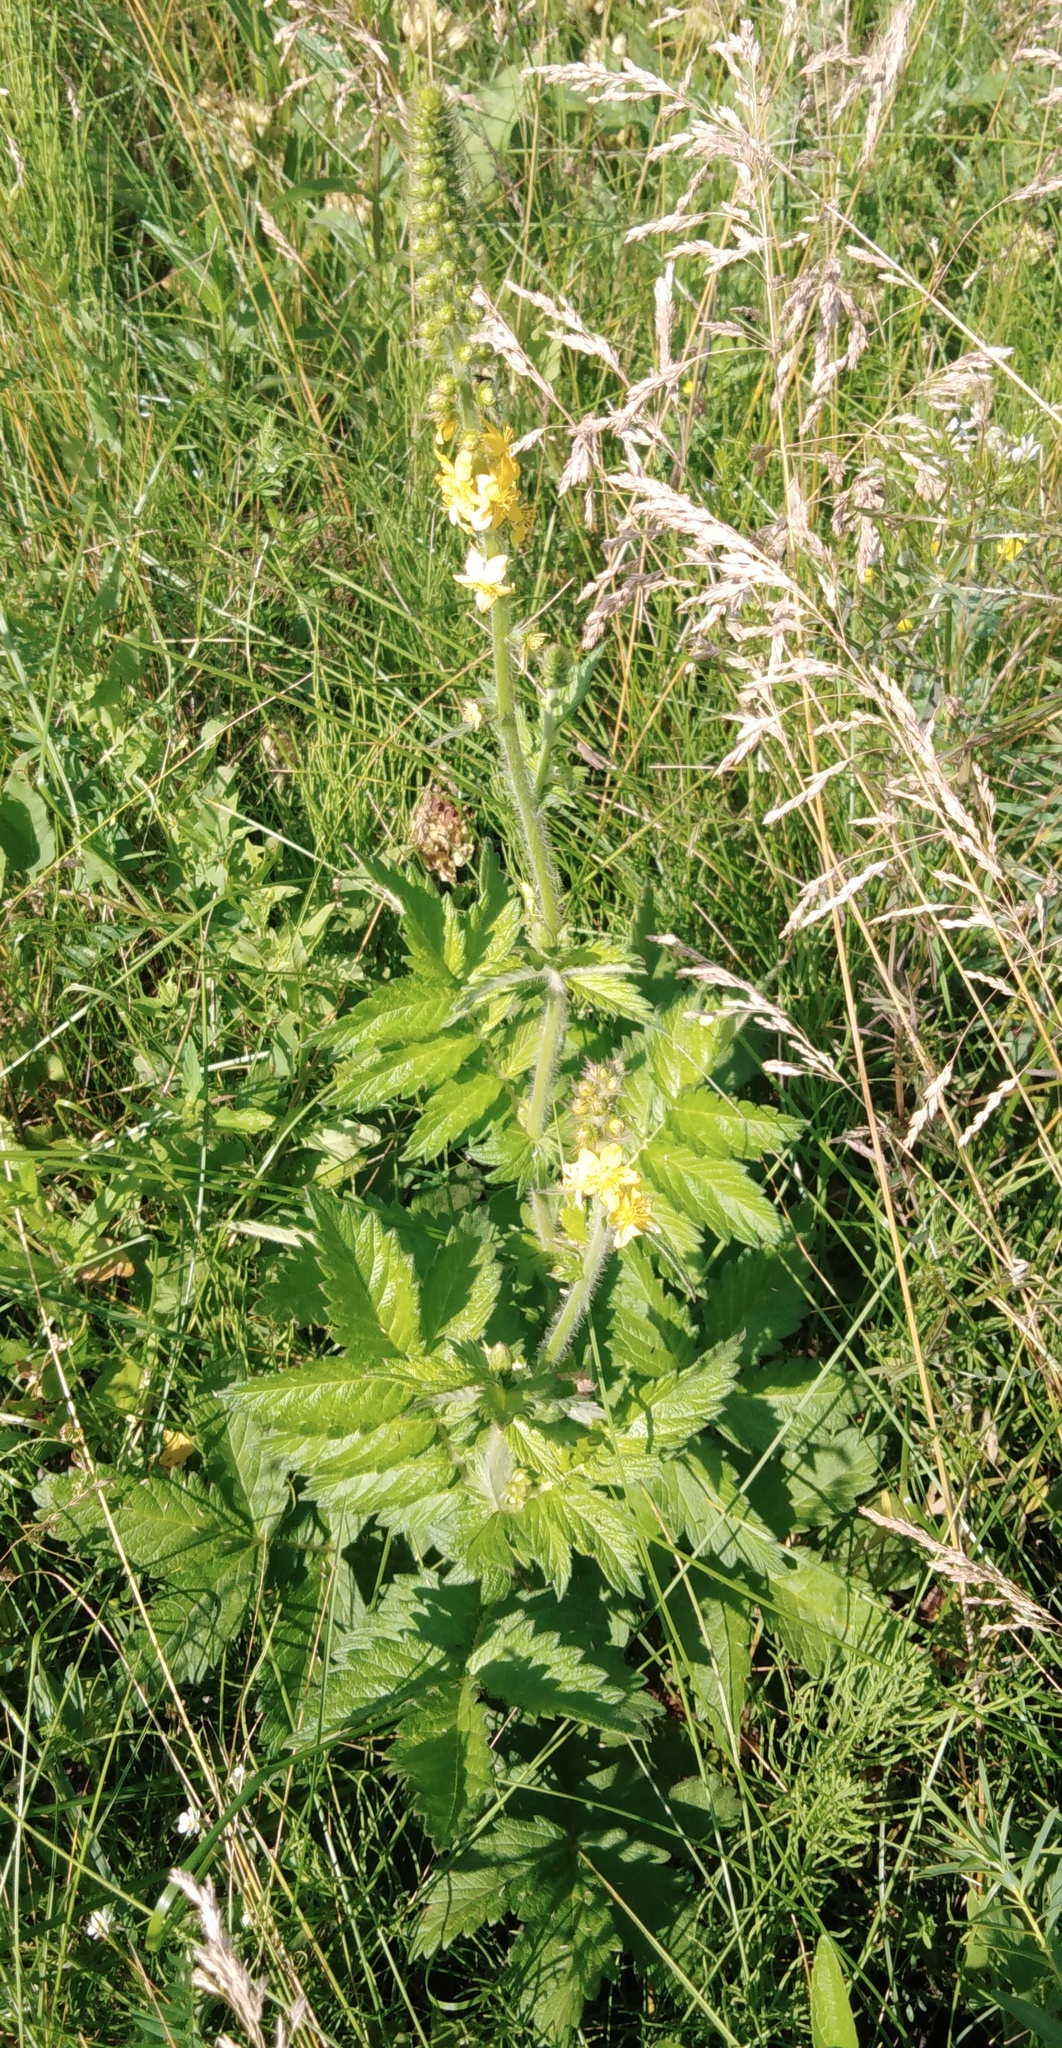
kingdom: Plantae
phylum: Tracheophyta
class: Magnoliopsida
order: Rosales
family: Rosaceae
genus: Agrimonia
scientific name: Agrimonia eupatoria
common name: Agrimony
